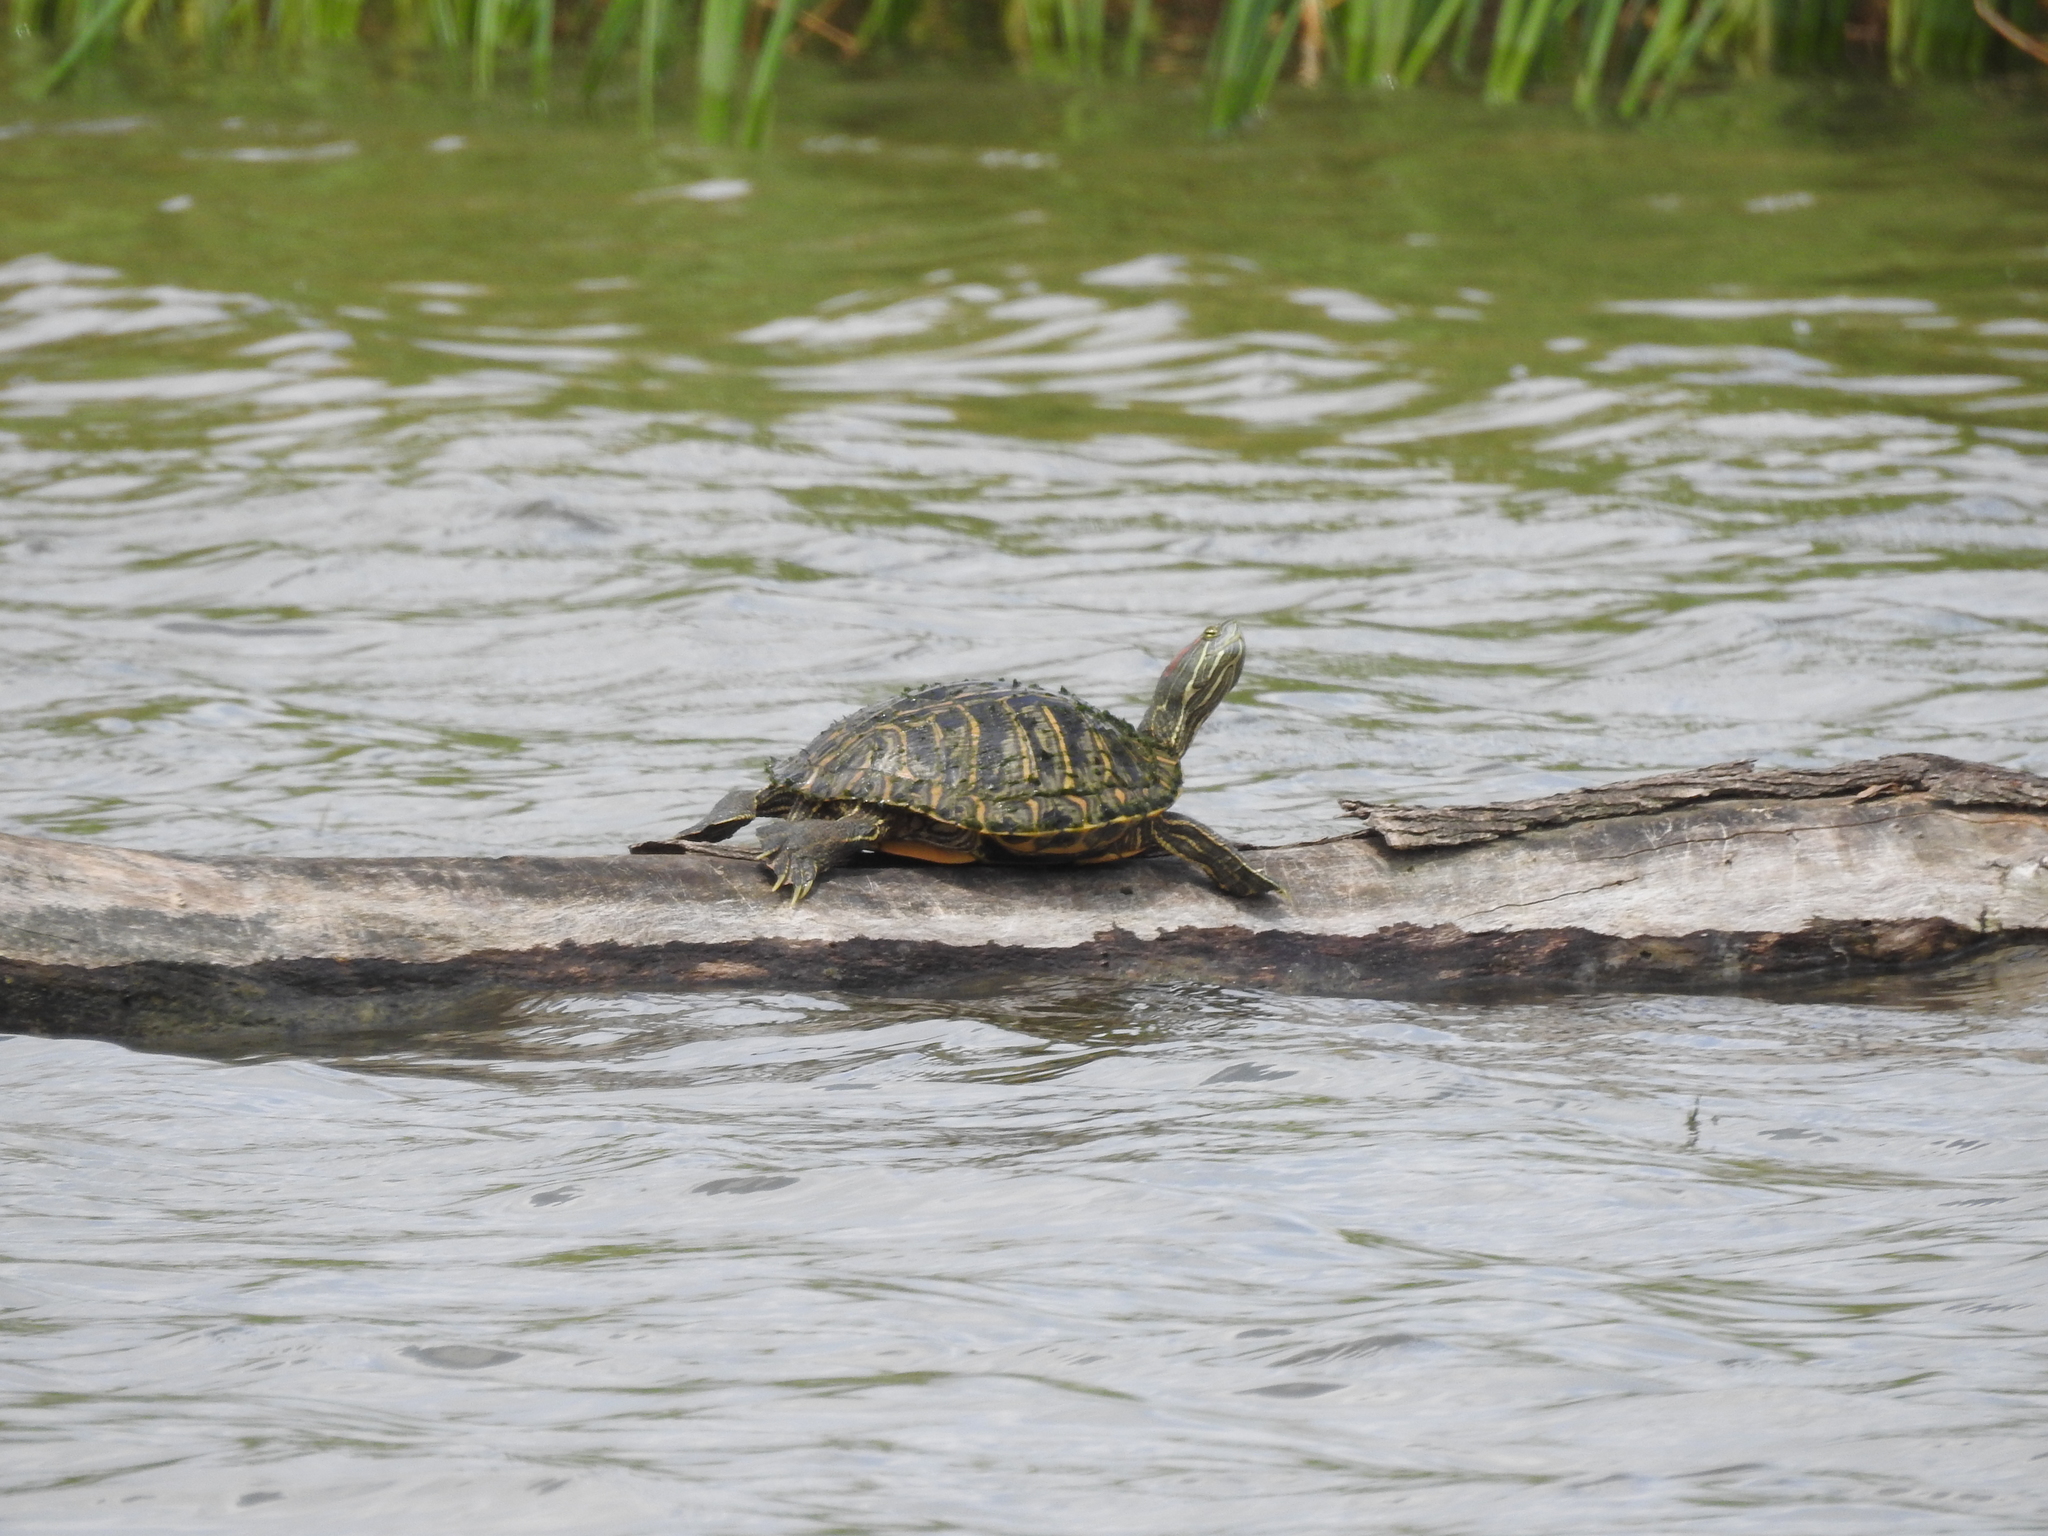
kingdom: Animalia
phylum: Chordata
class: Testudines
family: Emydidae
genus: Trachemys
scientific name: Trachemys scripta
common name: Slider
